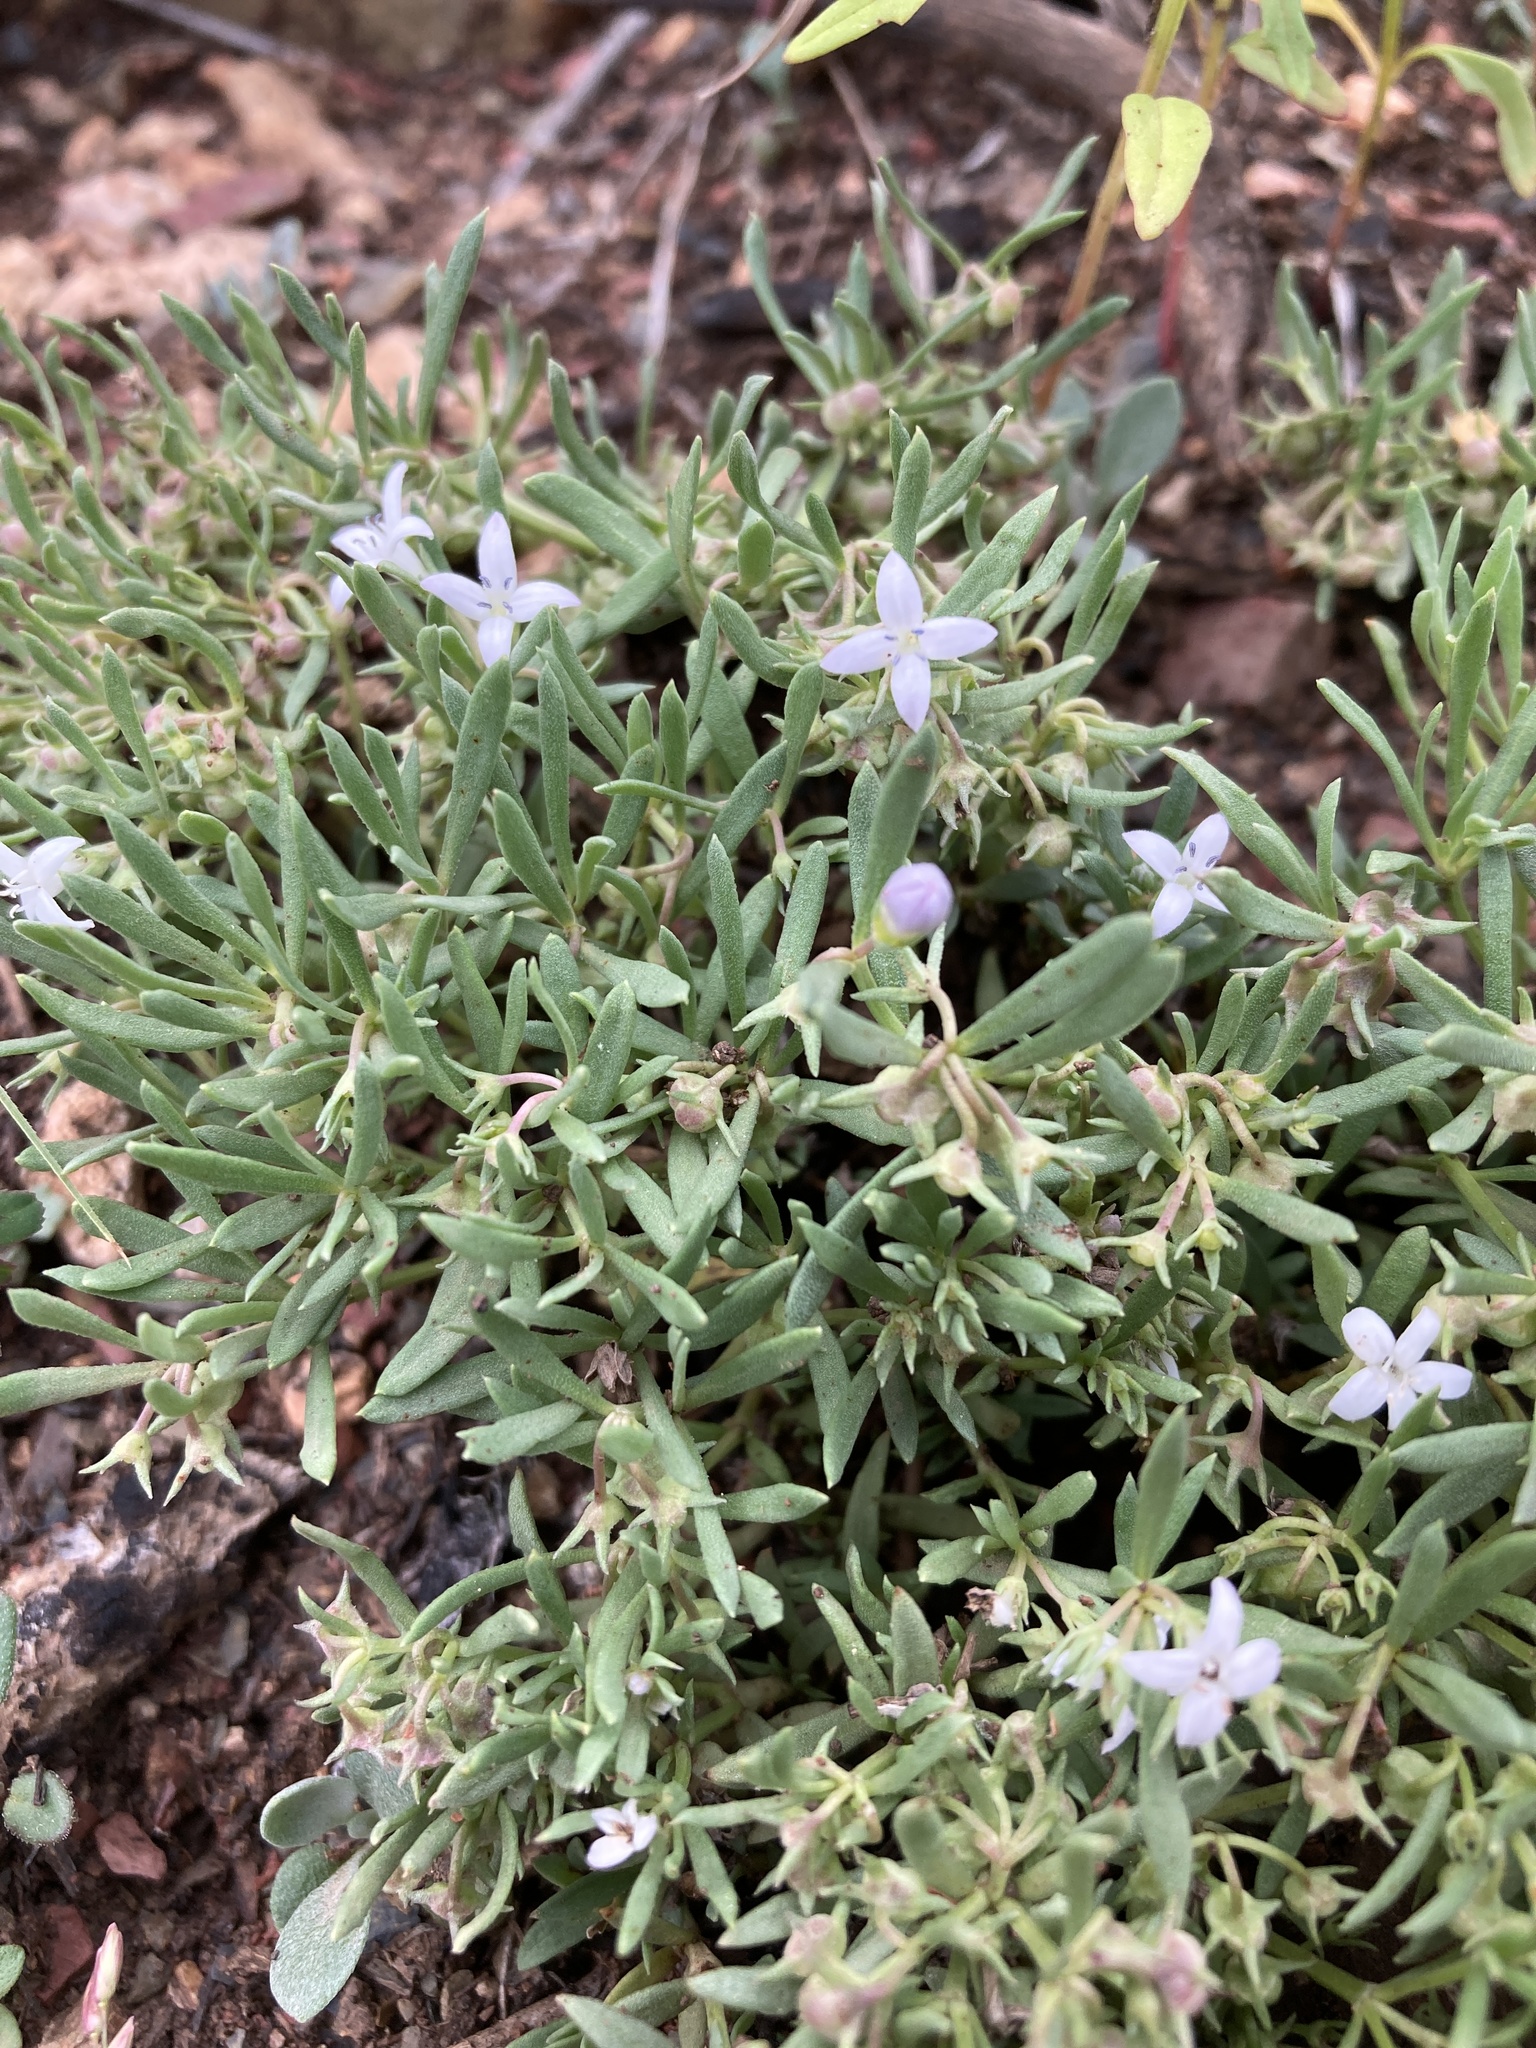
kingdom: Plantae
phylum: Tracheophyta
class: Magnoliopsida
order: Gentianales
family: Rubiaceae
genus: Houstonia
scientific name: Houstonia wrightii
